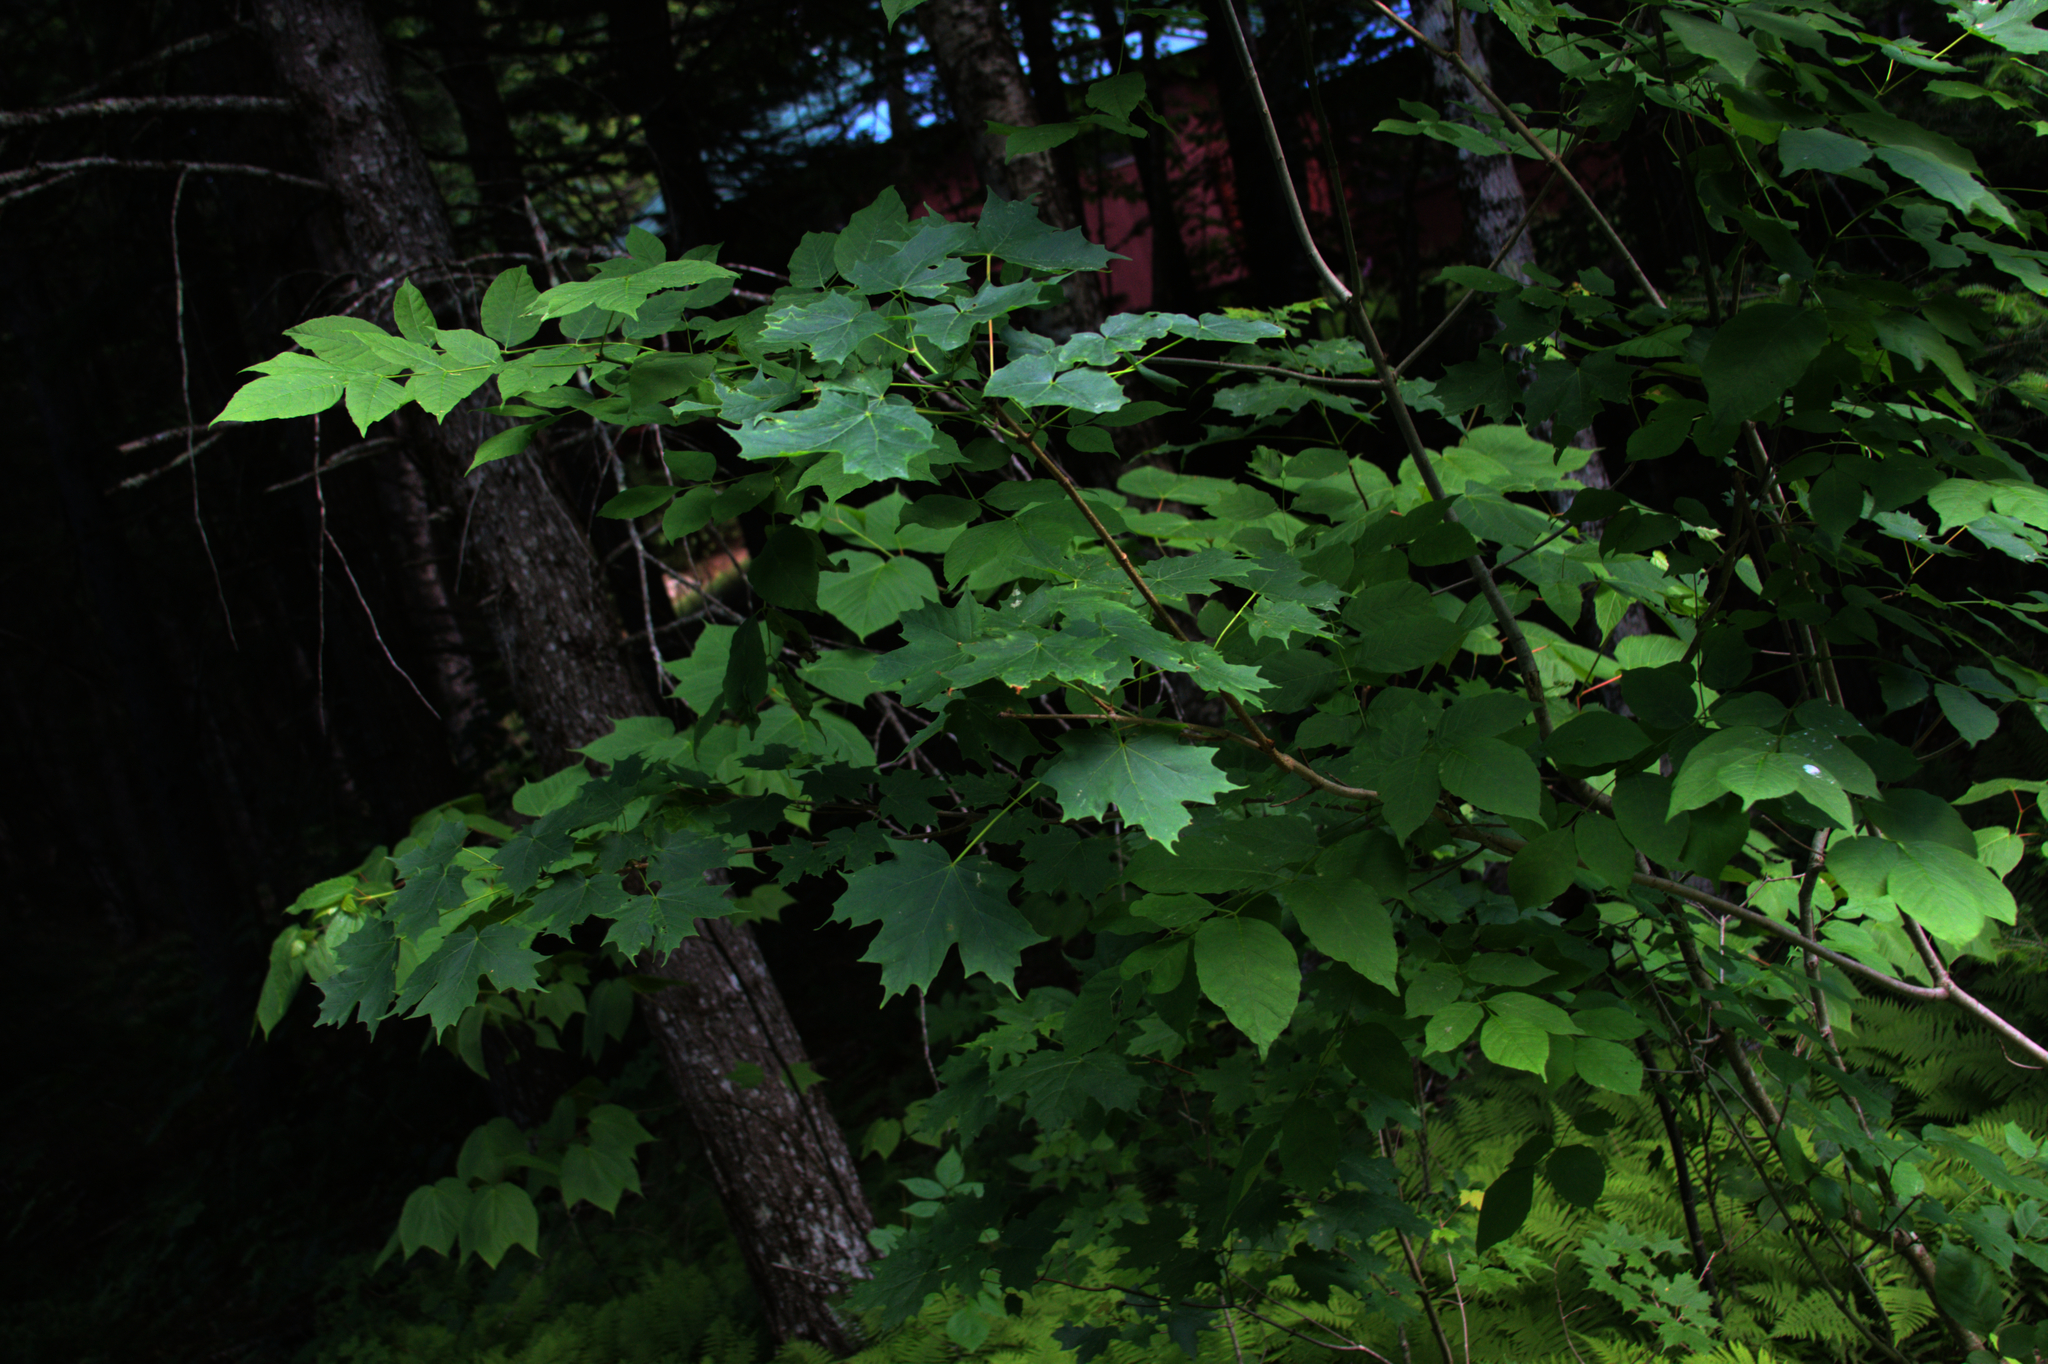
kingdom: Plantae
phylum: Tracheophyta
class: Magnoliopsida
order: Sapindales
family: Sapindaceae
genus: Acer
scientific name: Acer saccharum
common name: Sugar maple
